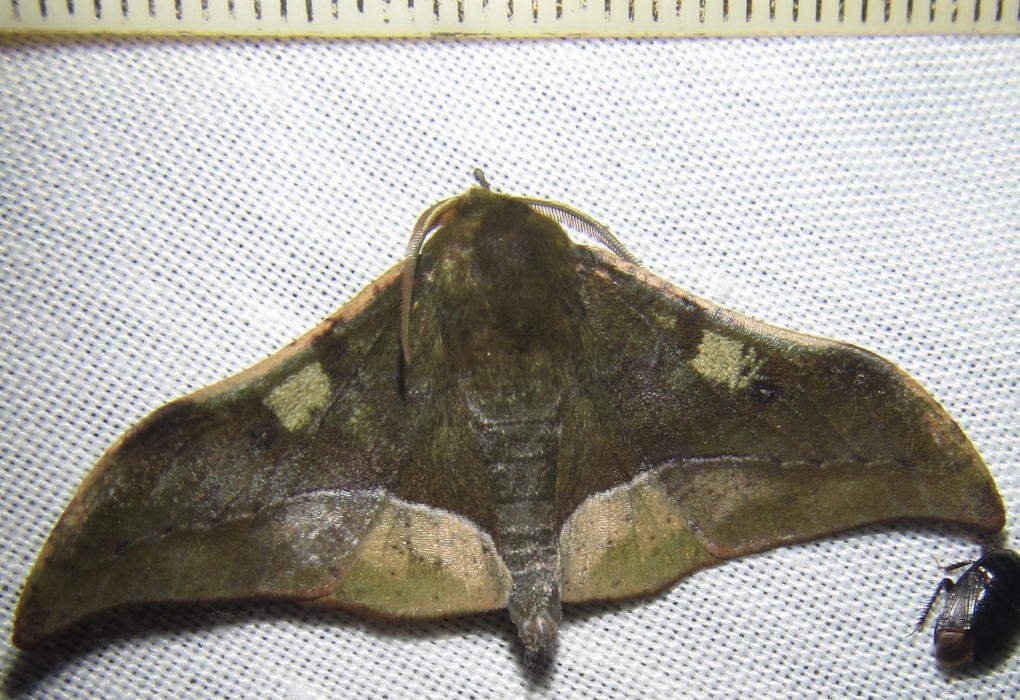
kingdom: Animalia
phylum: Arthropoda
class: Insecta
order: Lepidoptera
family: Geometridae
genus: Plegapteryx
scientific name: Plegapteryx anomalus
